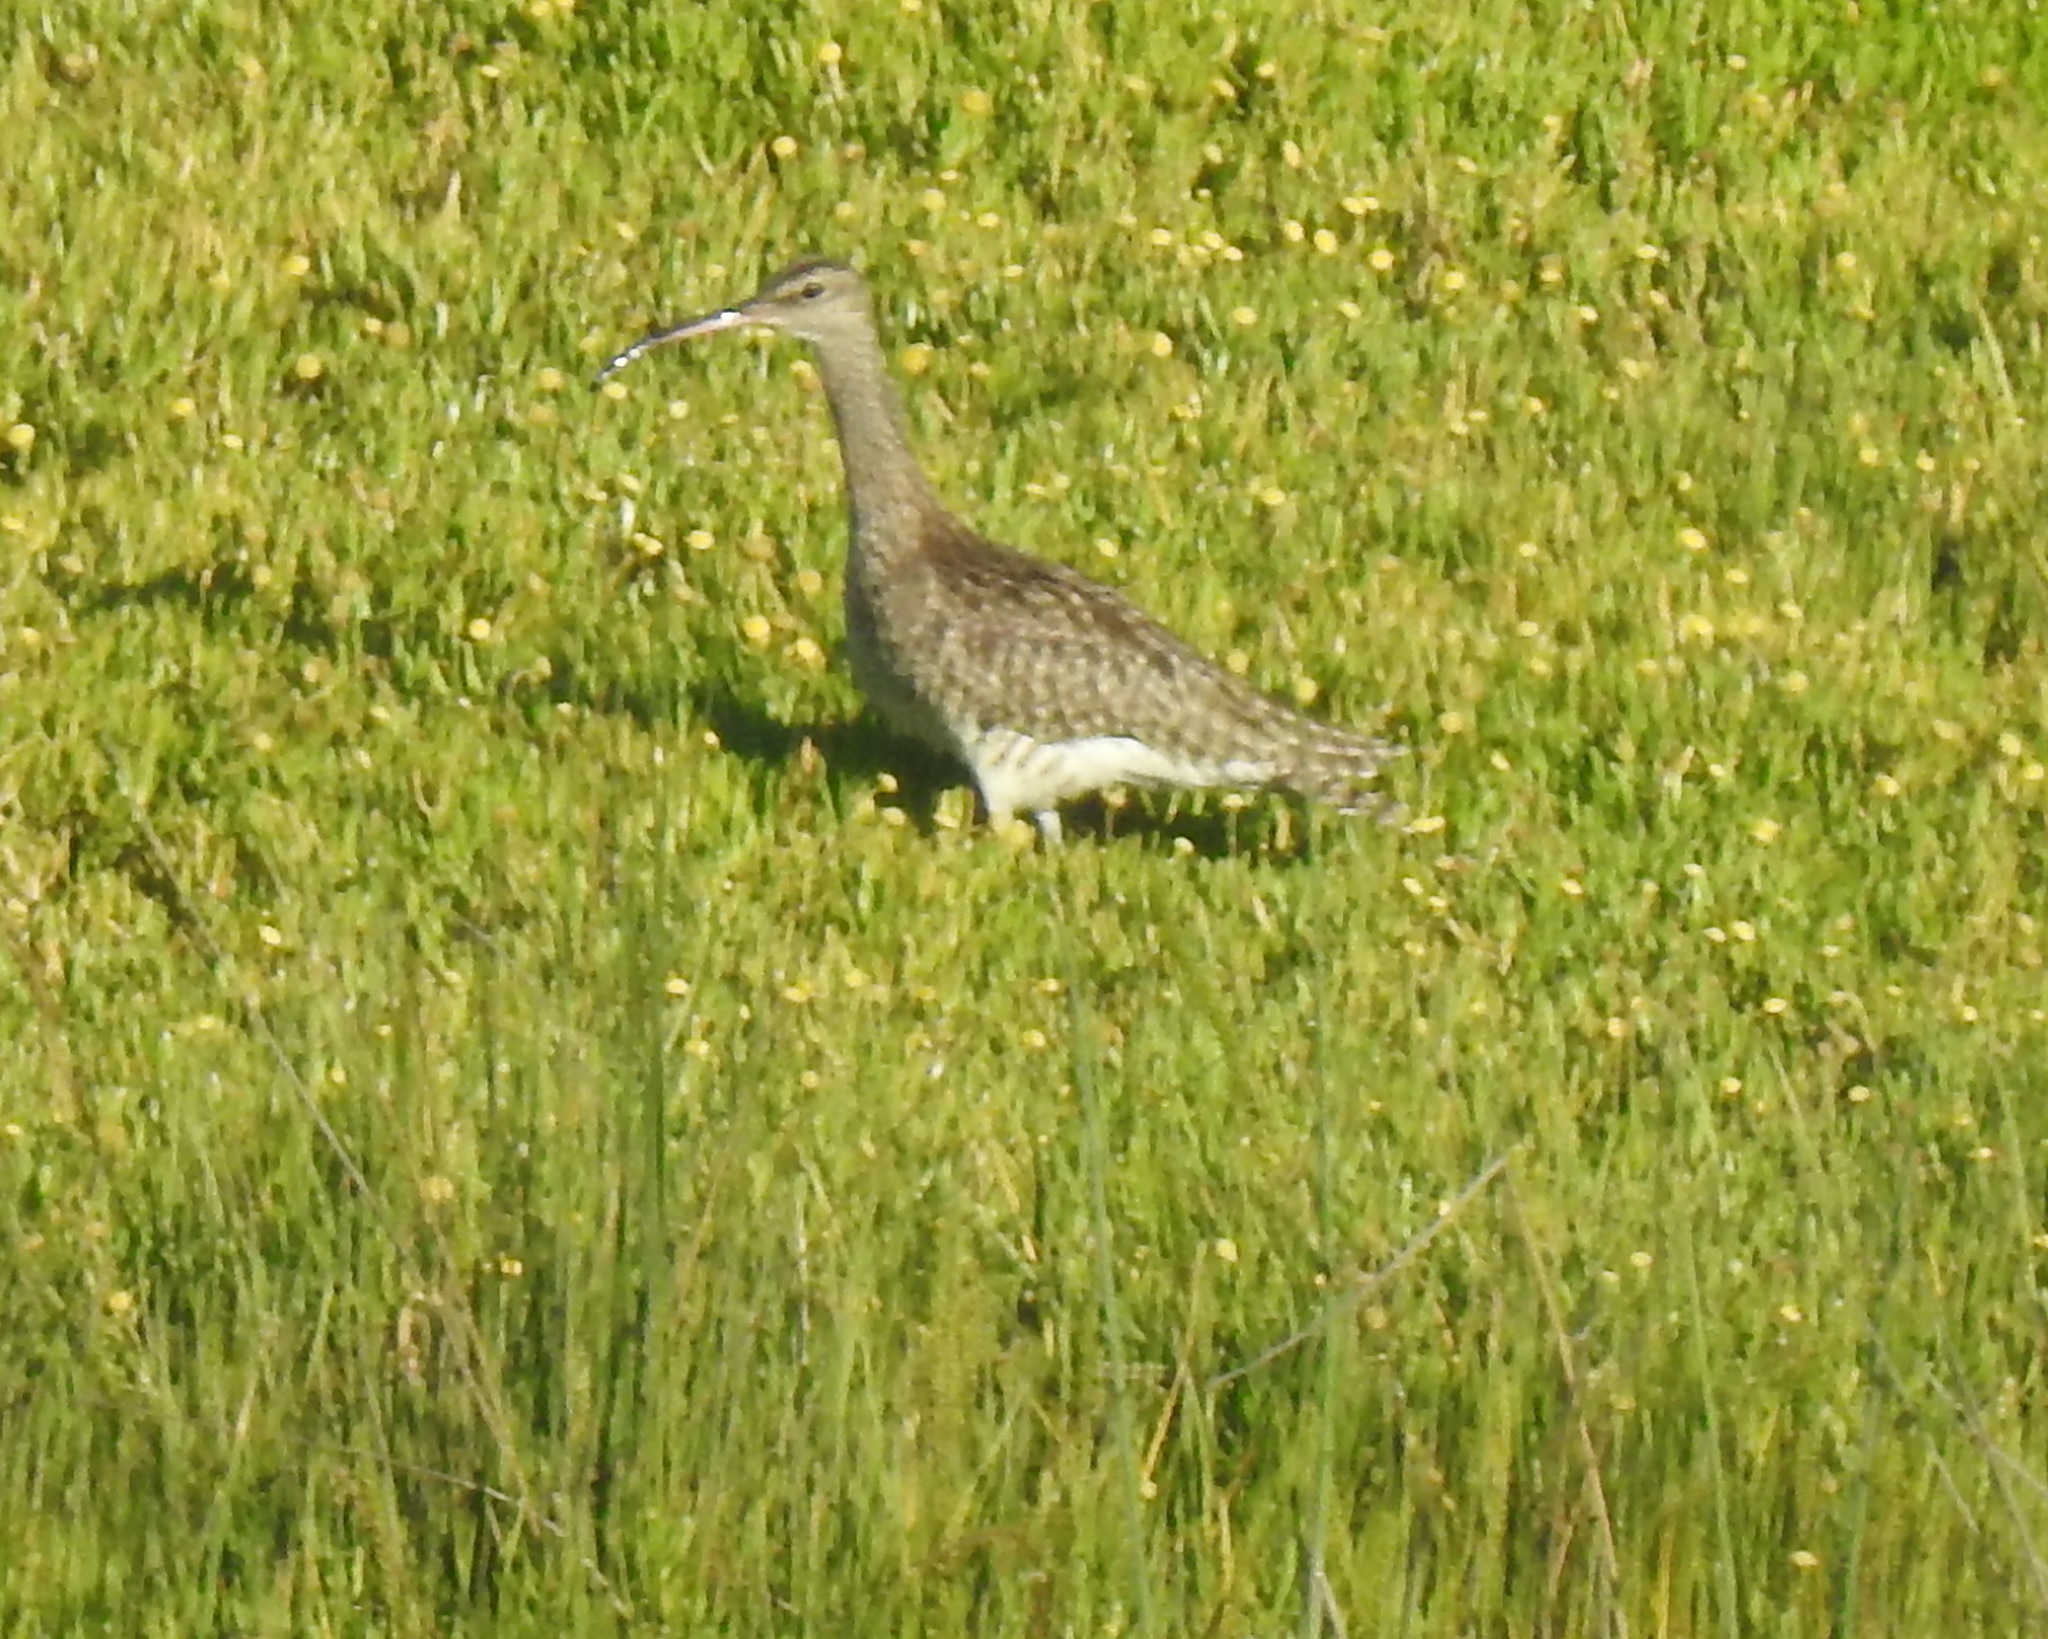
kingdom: Animalia
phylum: Chordata
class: Aves
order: Charadriiformes
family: Scolopacidae
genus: Numenius
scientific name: Numenius phaeopus
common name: Whimbrel
